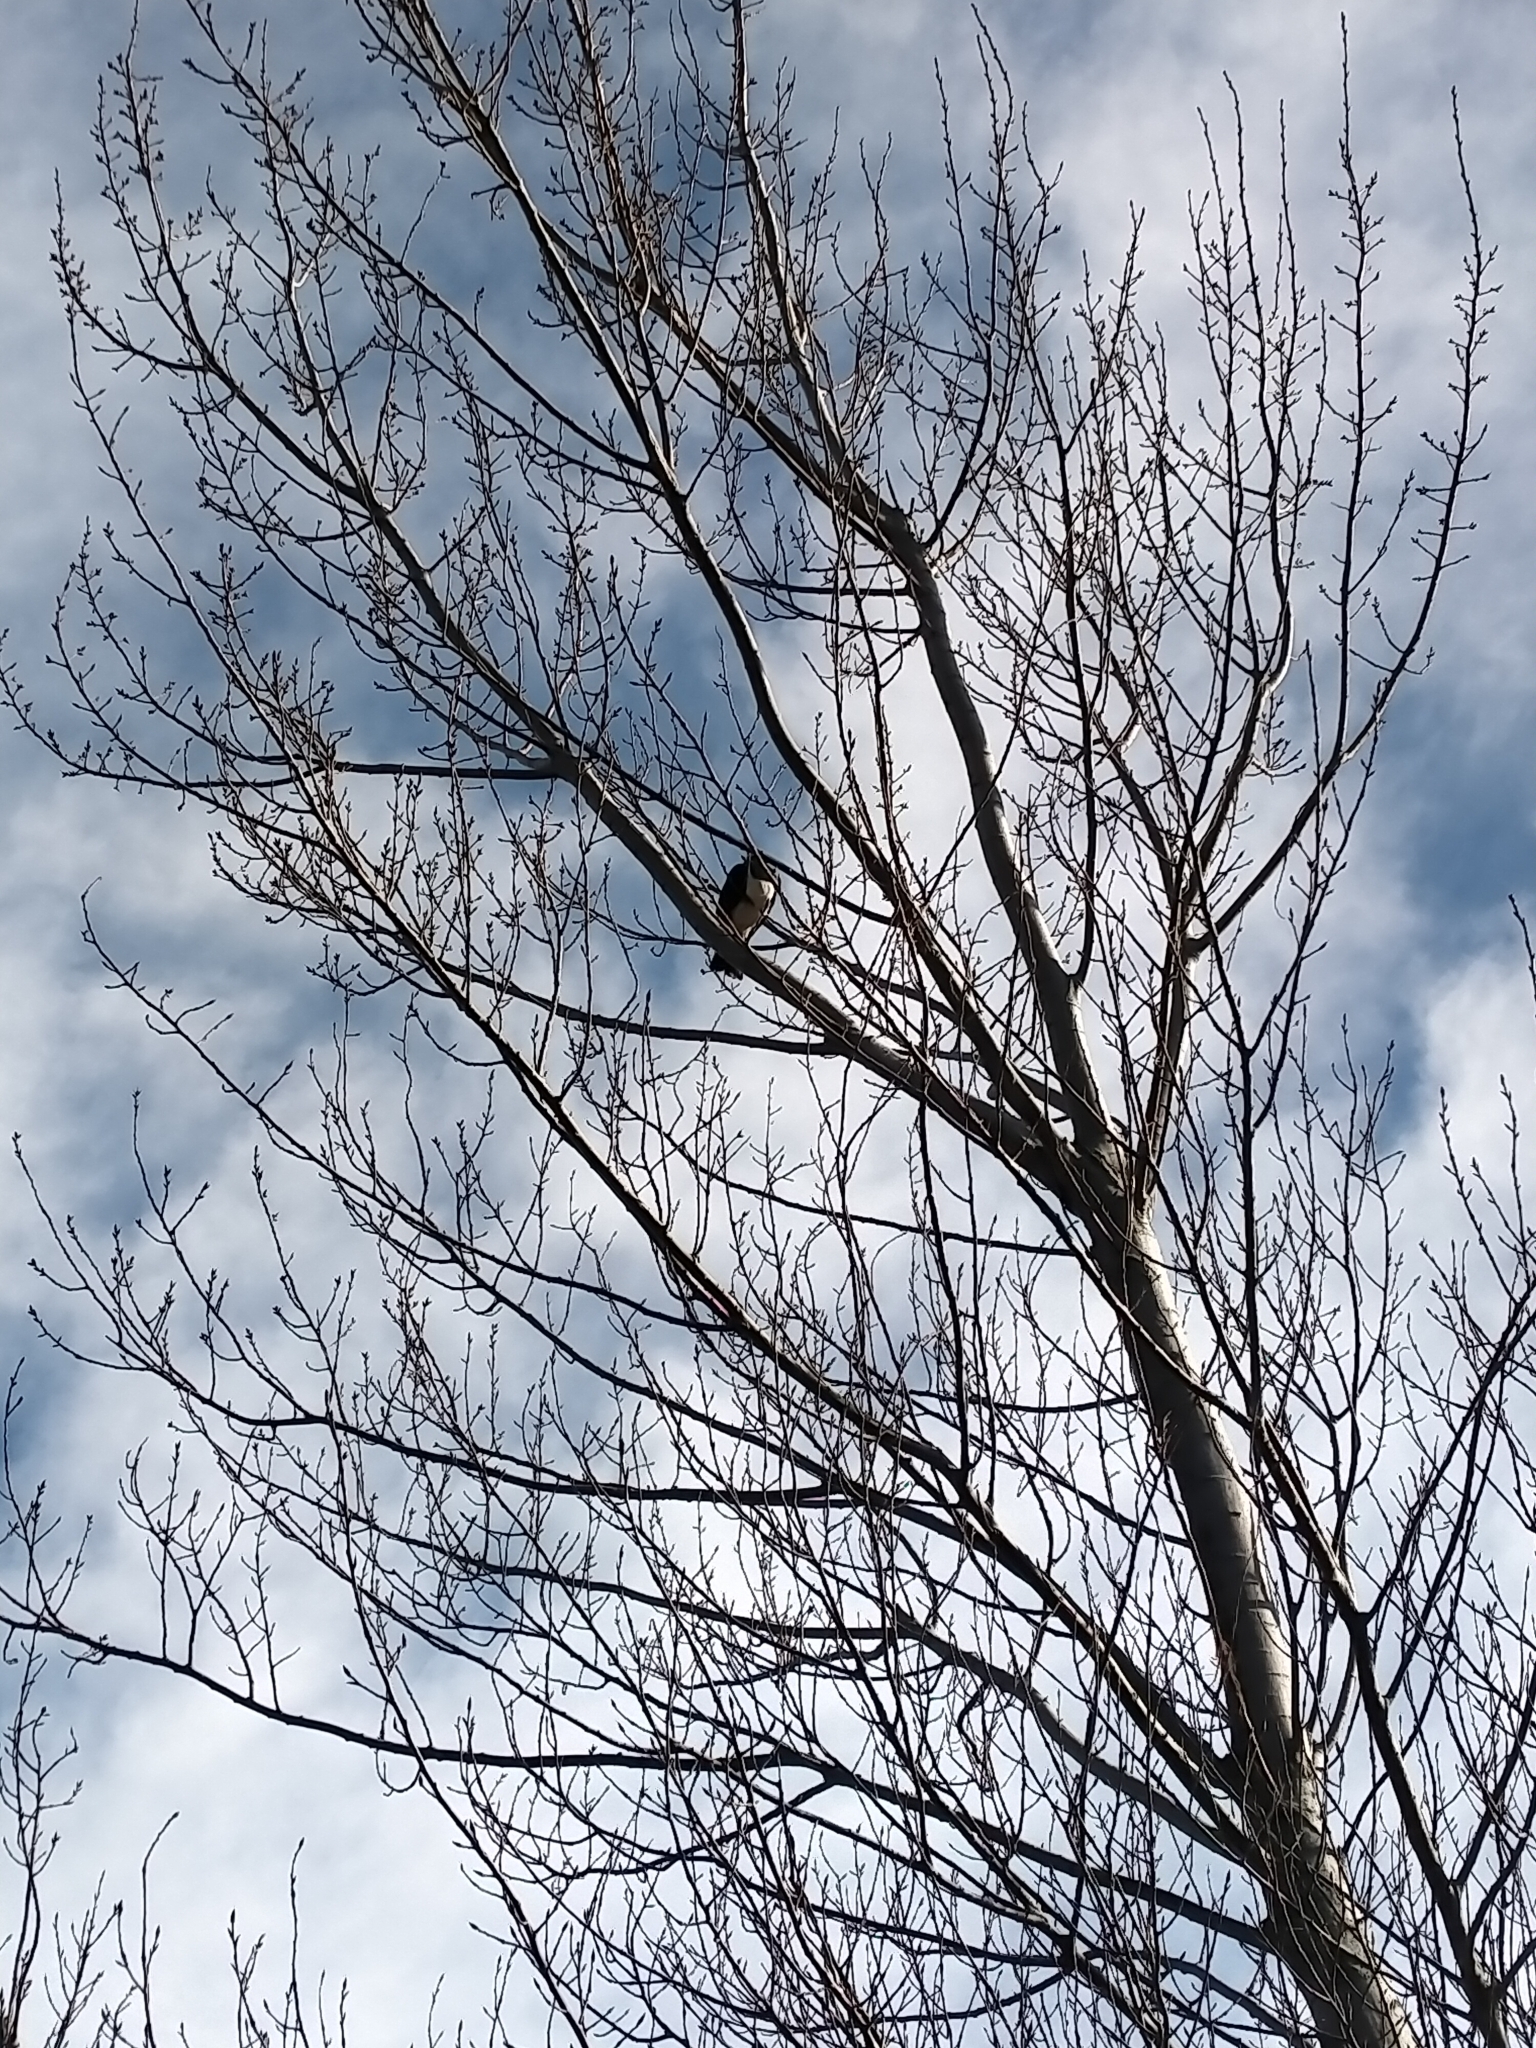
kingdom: Animalia
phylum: Chordata
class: Aves
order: Columbiformes
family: Columbidae
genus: Hemiphaga
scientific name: Hemiphaga novaeseelandiae
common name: New zealand pigeon
